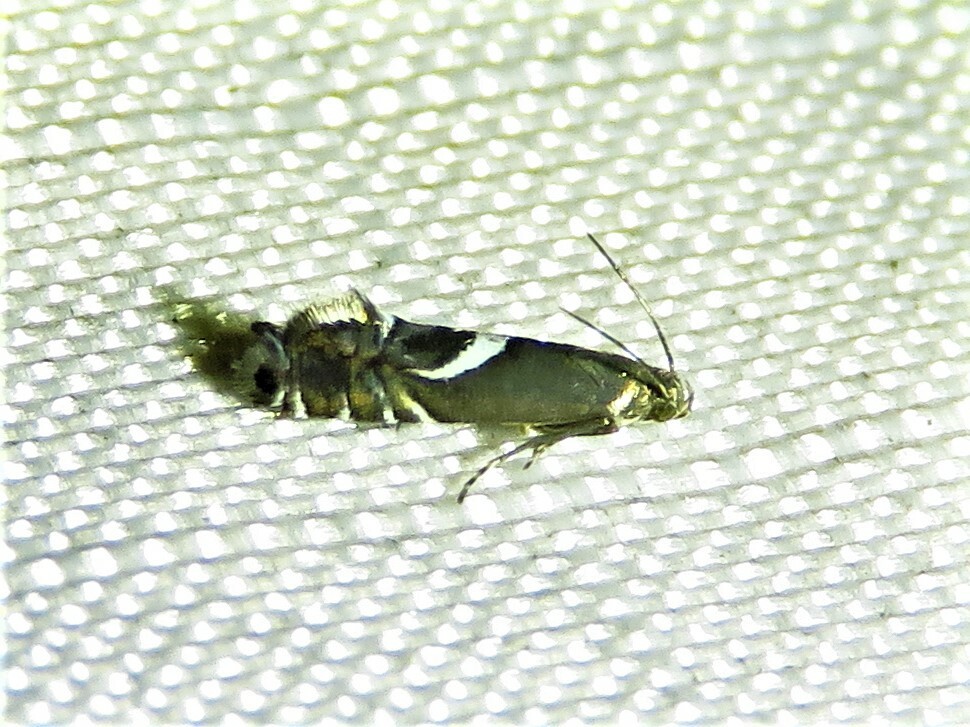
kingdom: Animalia
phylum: Arthropoda
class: Insecta
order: Lepidoptera
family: Glyphipterigidae
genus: Glyphipterix
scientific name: Glyphipterix Diploschizia impigritella
